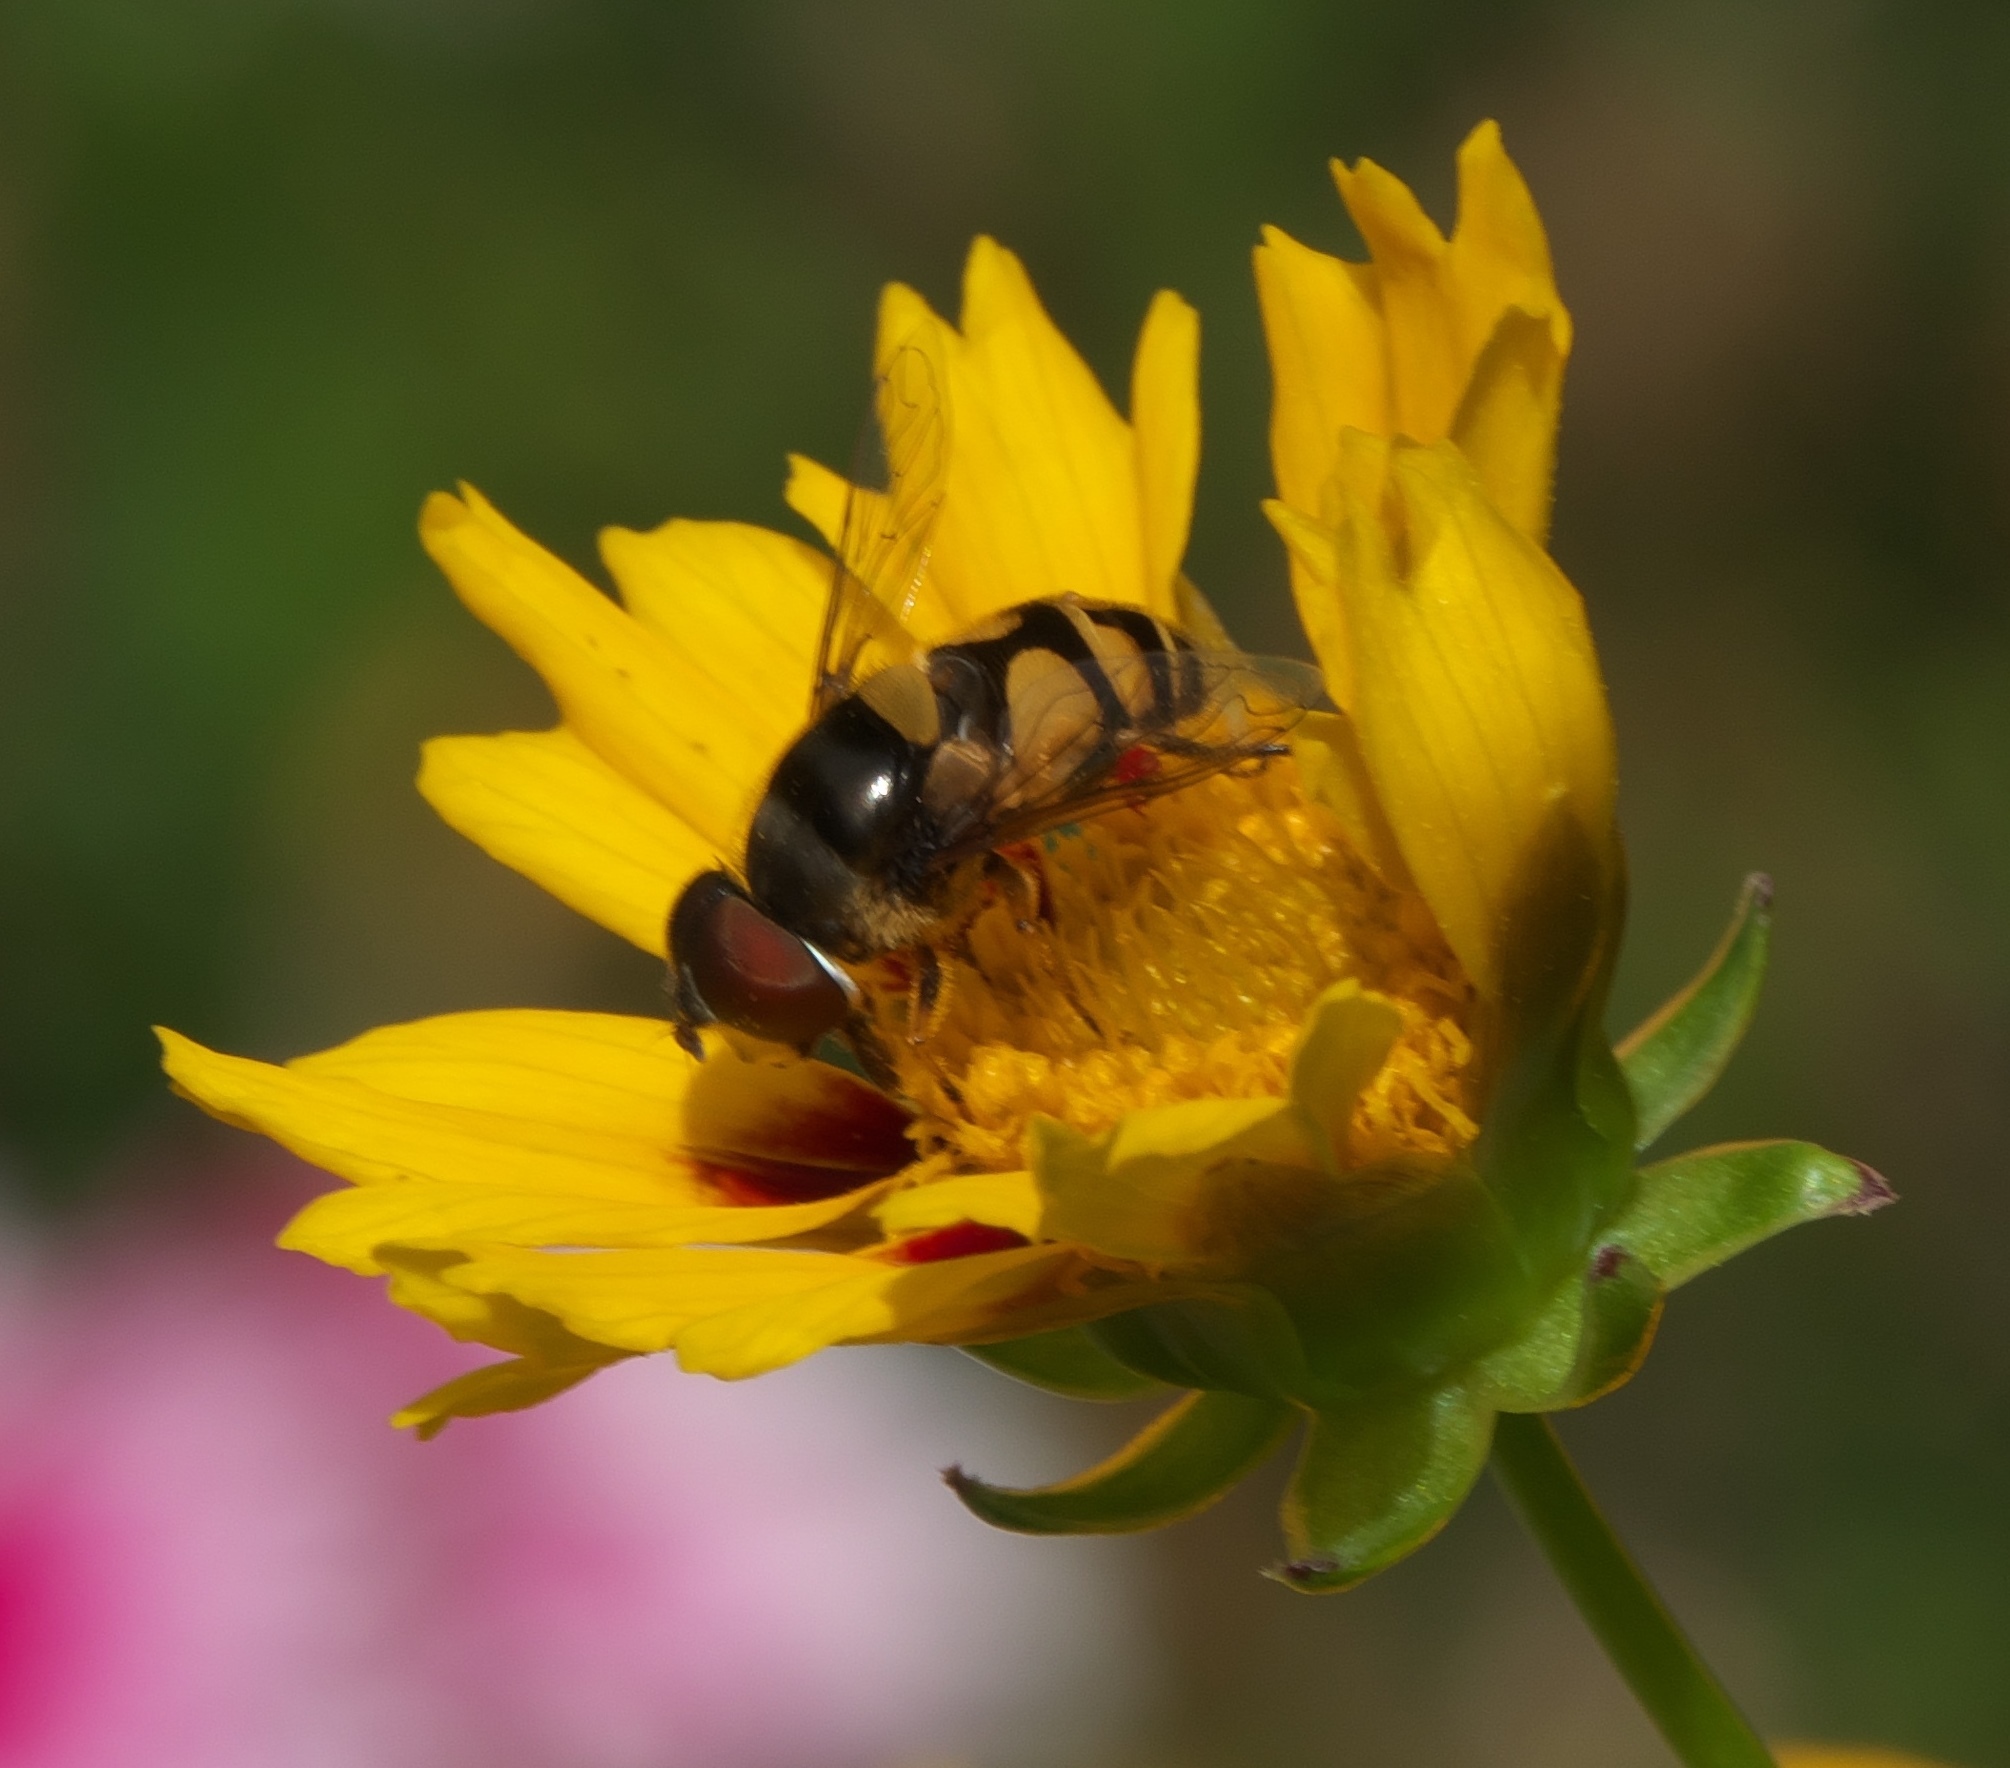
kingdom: Animalia
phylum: Arthropoda
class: Insecta
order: Diptera
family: Syrphidae
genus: Eristalis
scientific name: Eristalis transversa
